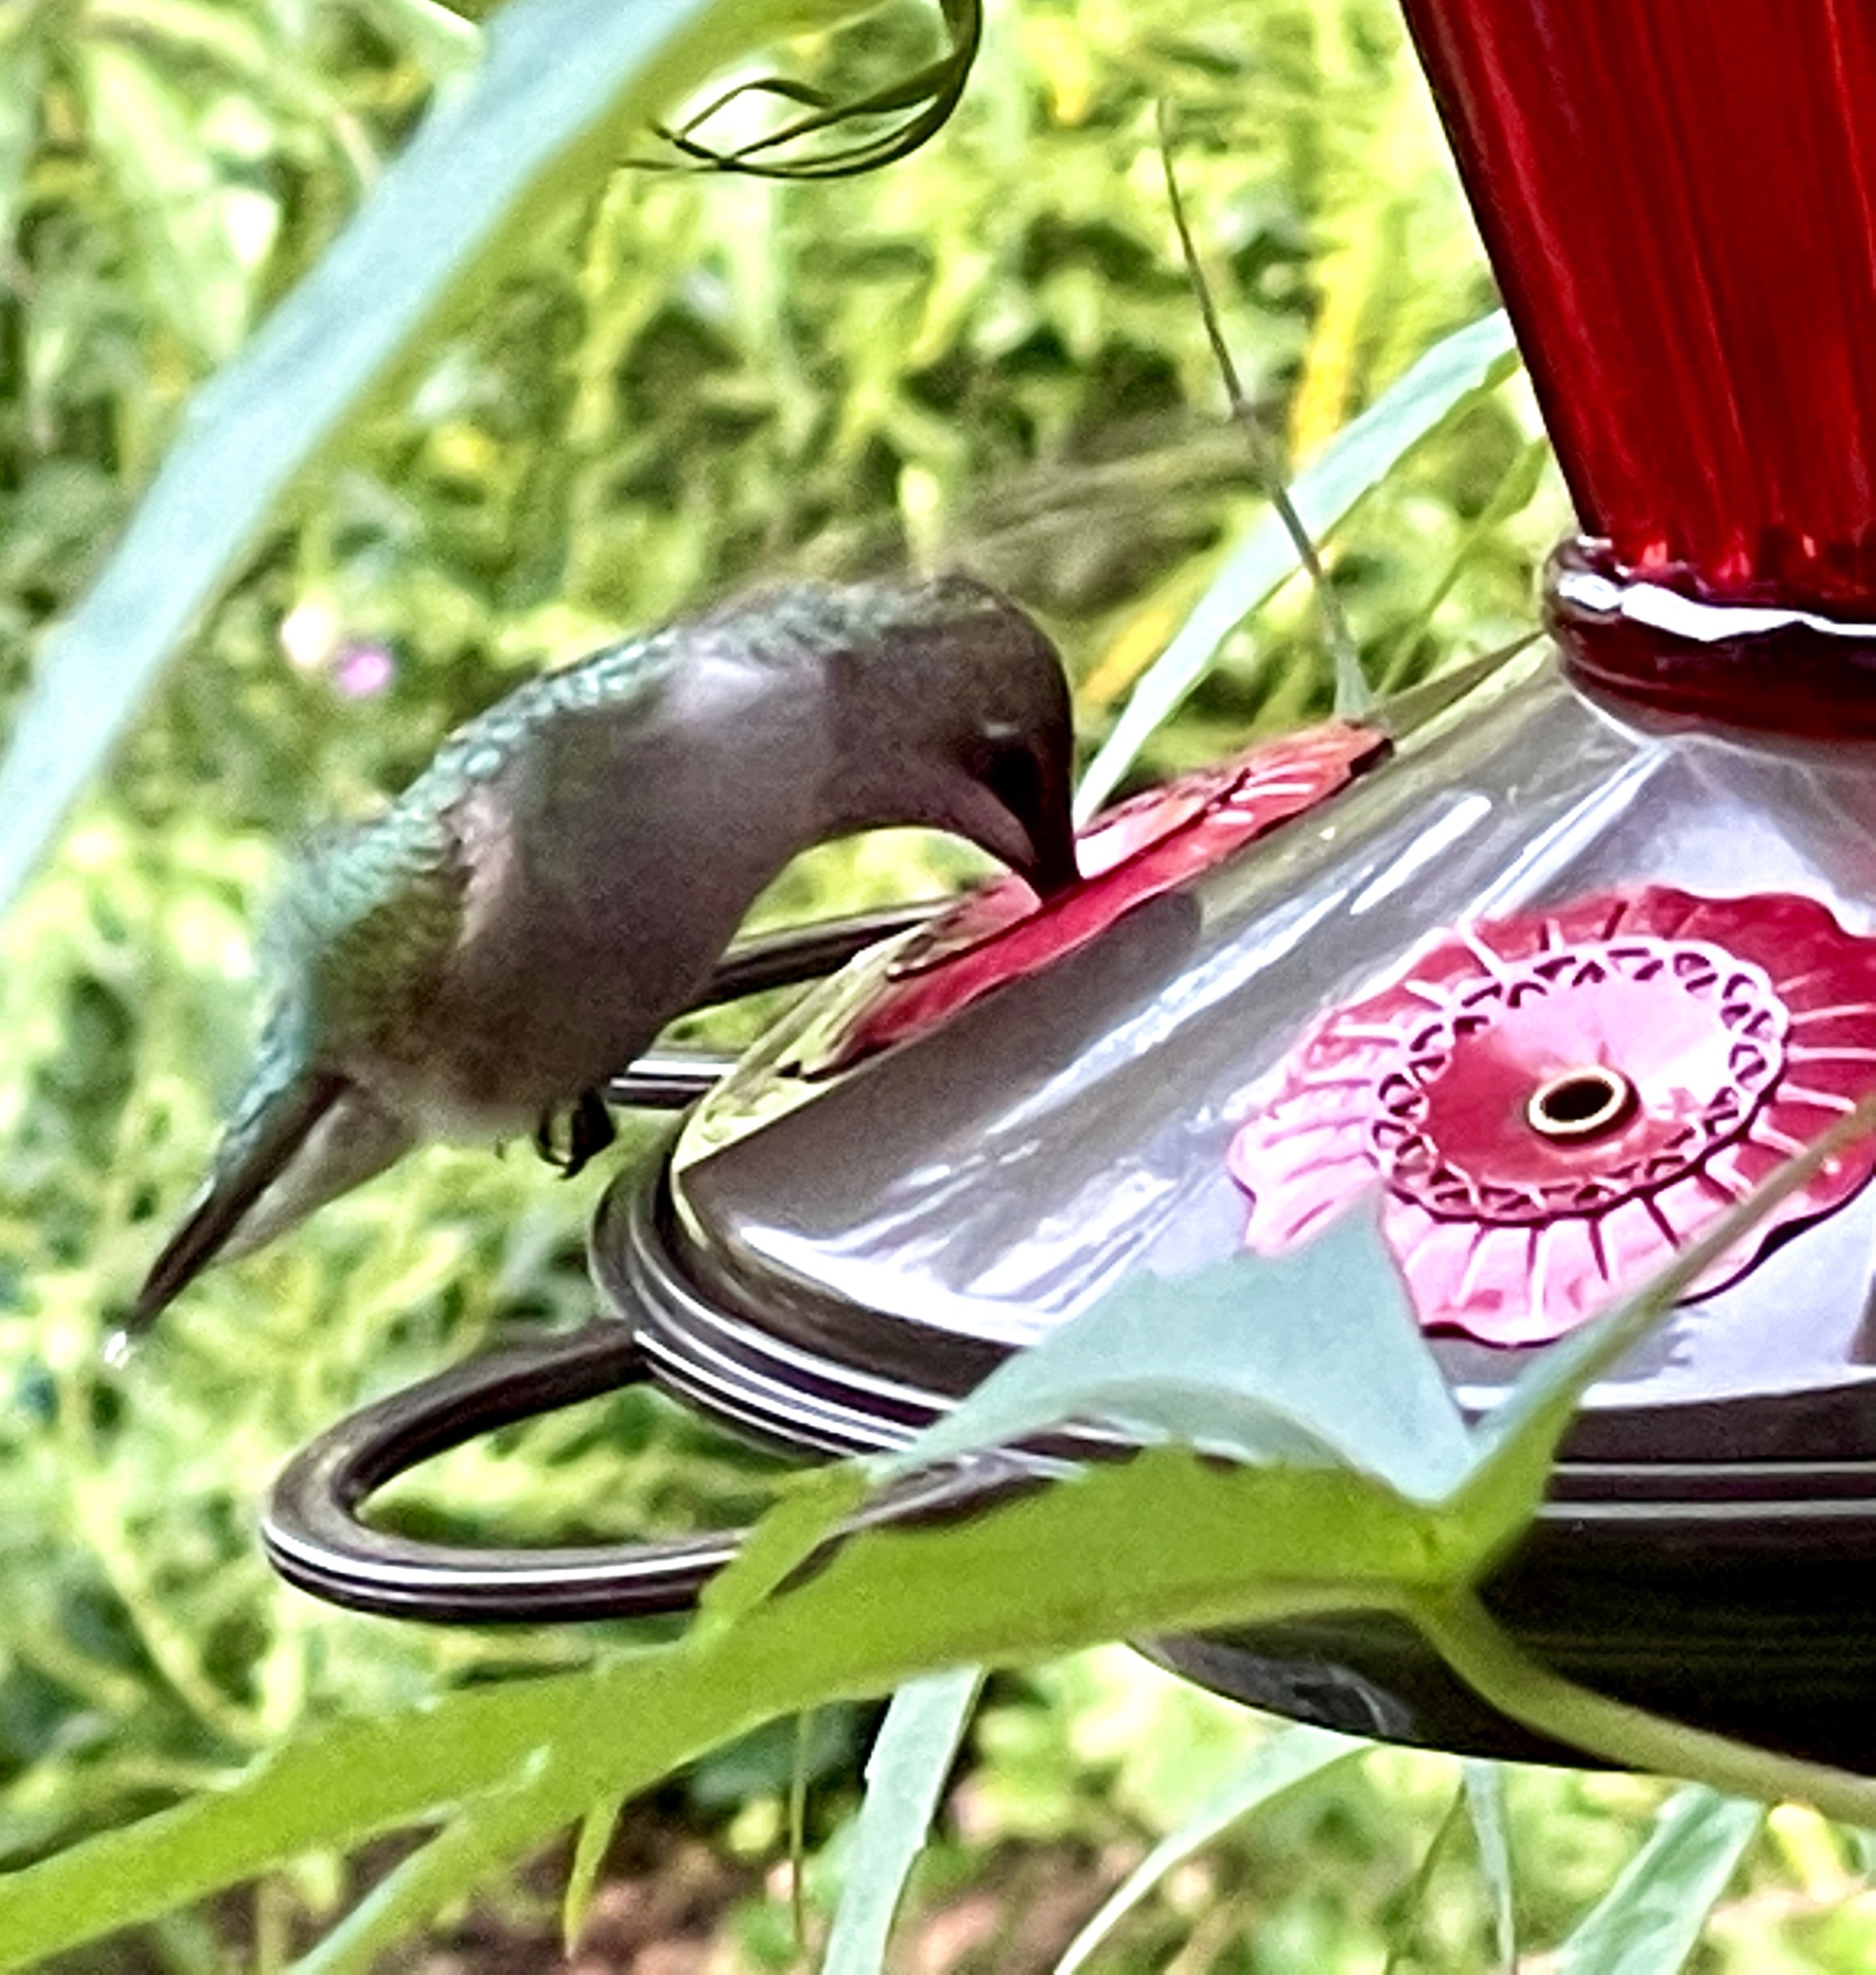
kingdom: Animalia
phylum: Chordata
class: Aves
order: Apodiformes
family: Trochilidae
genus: Archilochus
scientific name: Archilochus colubris
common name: Ruby-throated hummingbird
